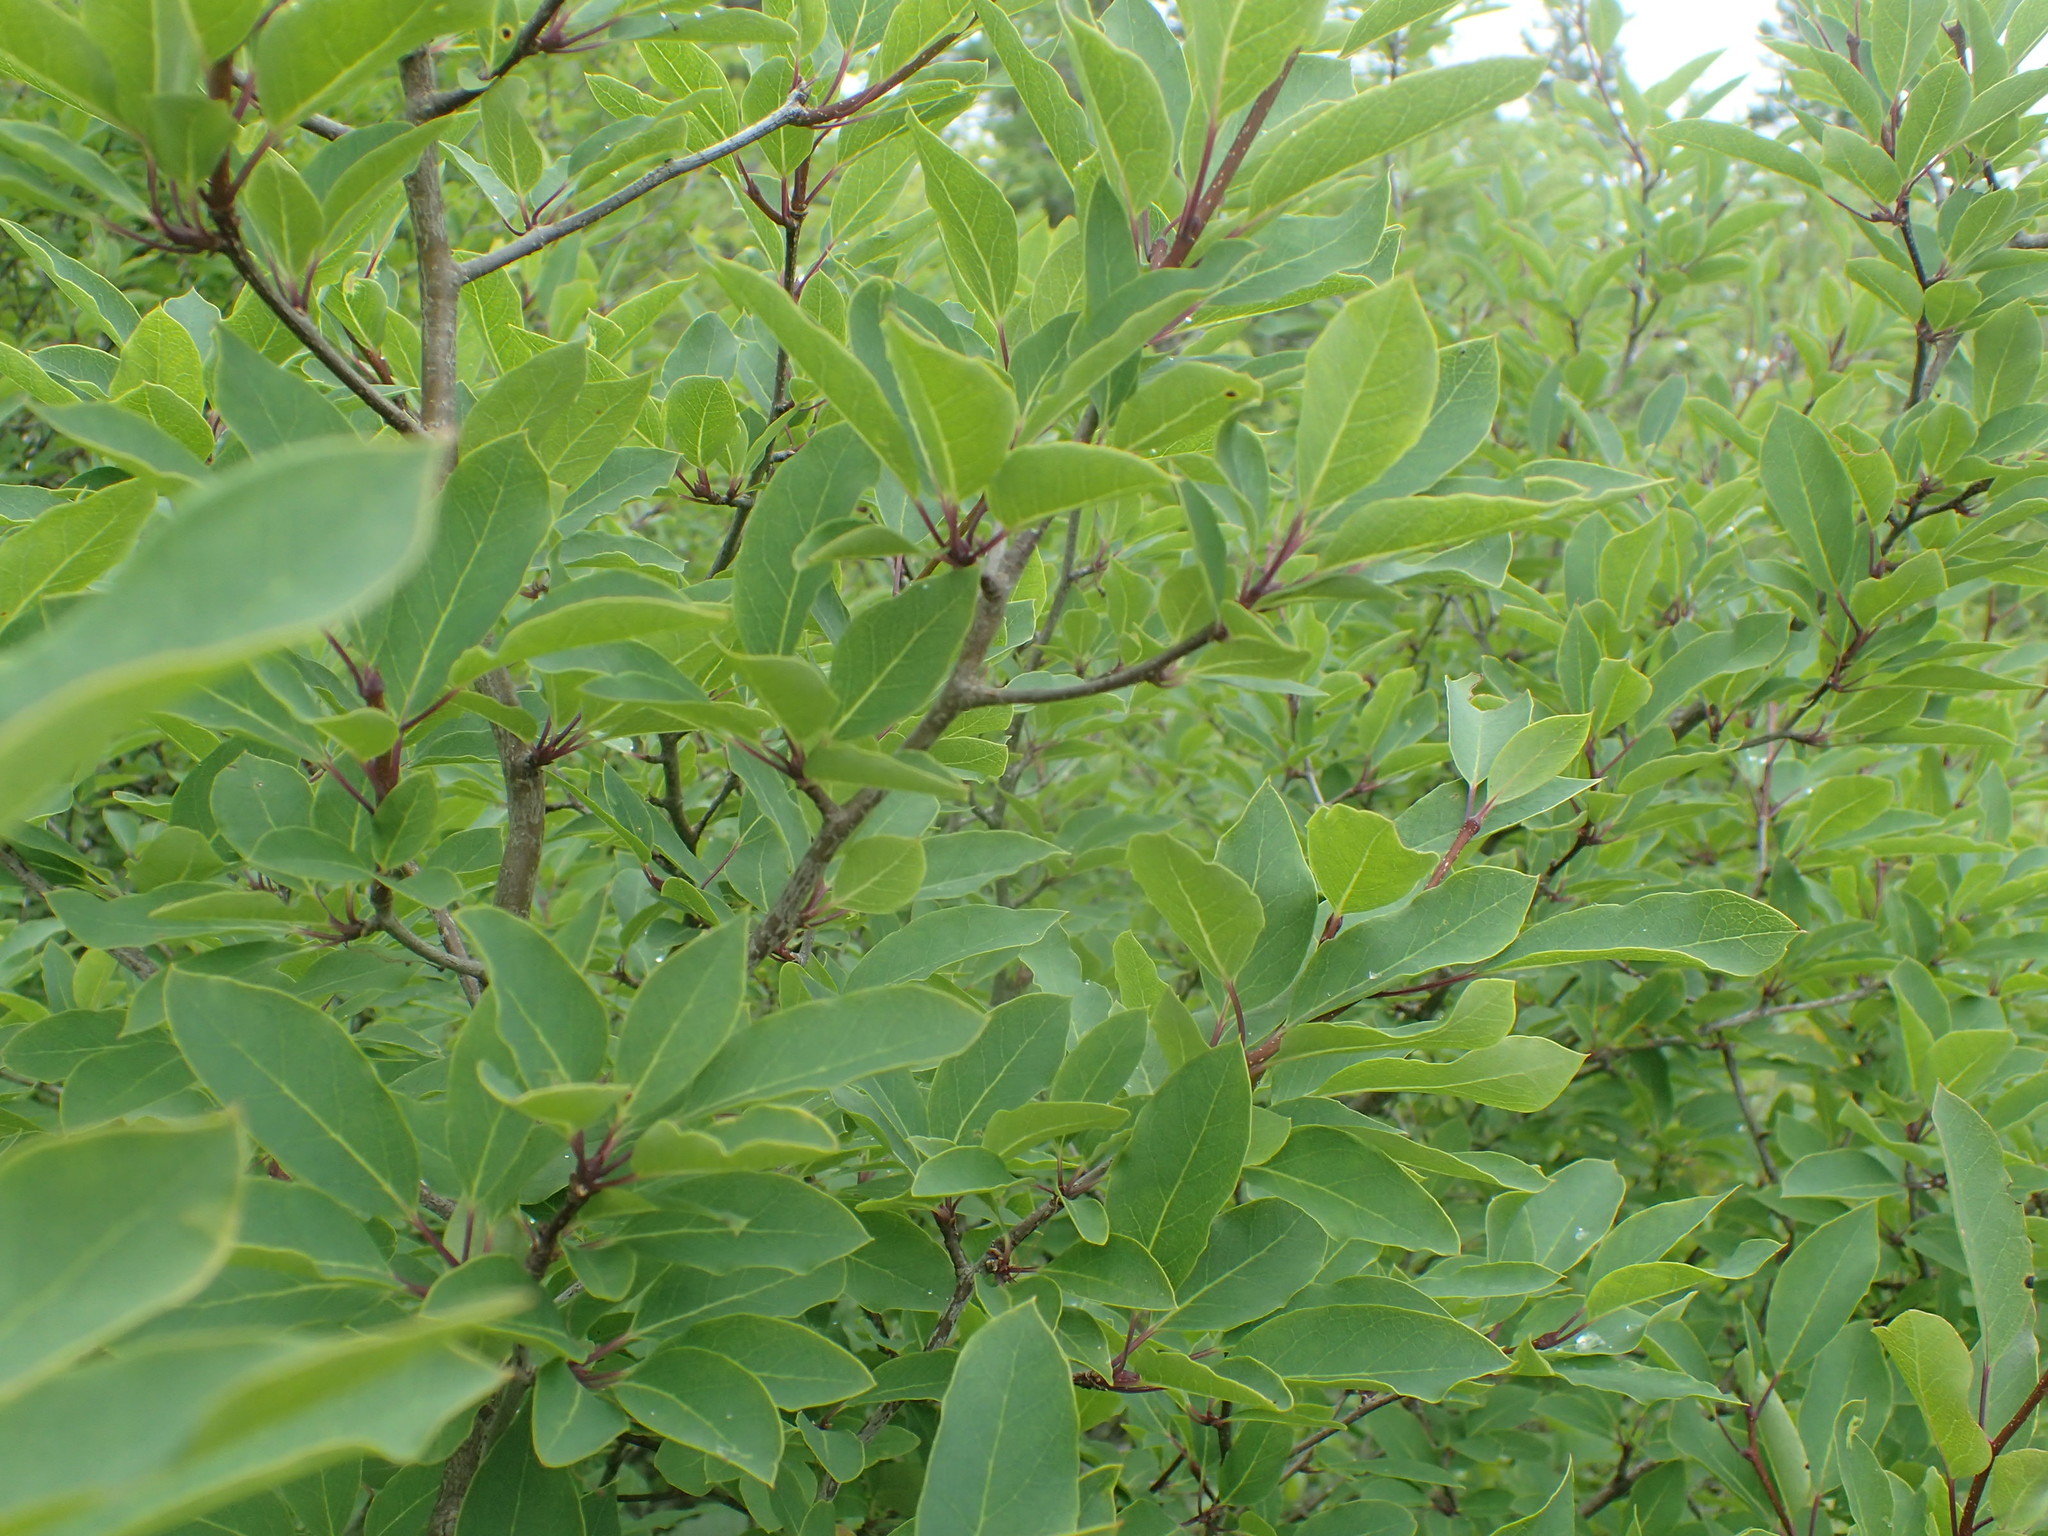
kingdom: Plantae
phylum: Tracheophyta
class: Magnoliopsida
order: Aquifoliales
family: Aquifoliaceae
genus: Ilex
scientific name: Ilex mucronata
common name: Catberry
